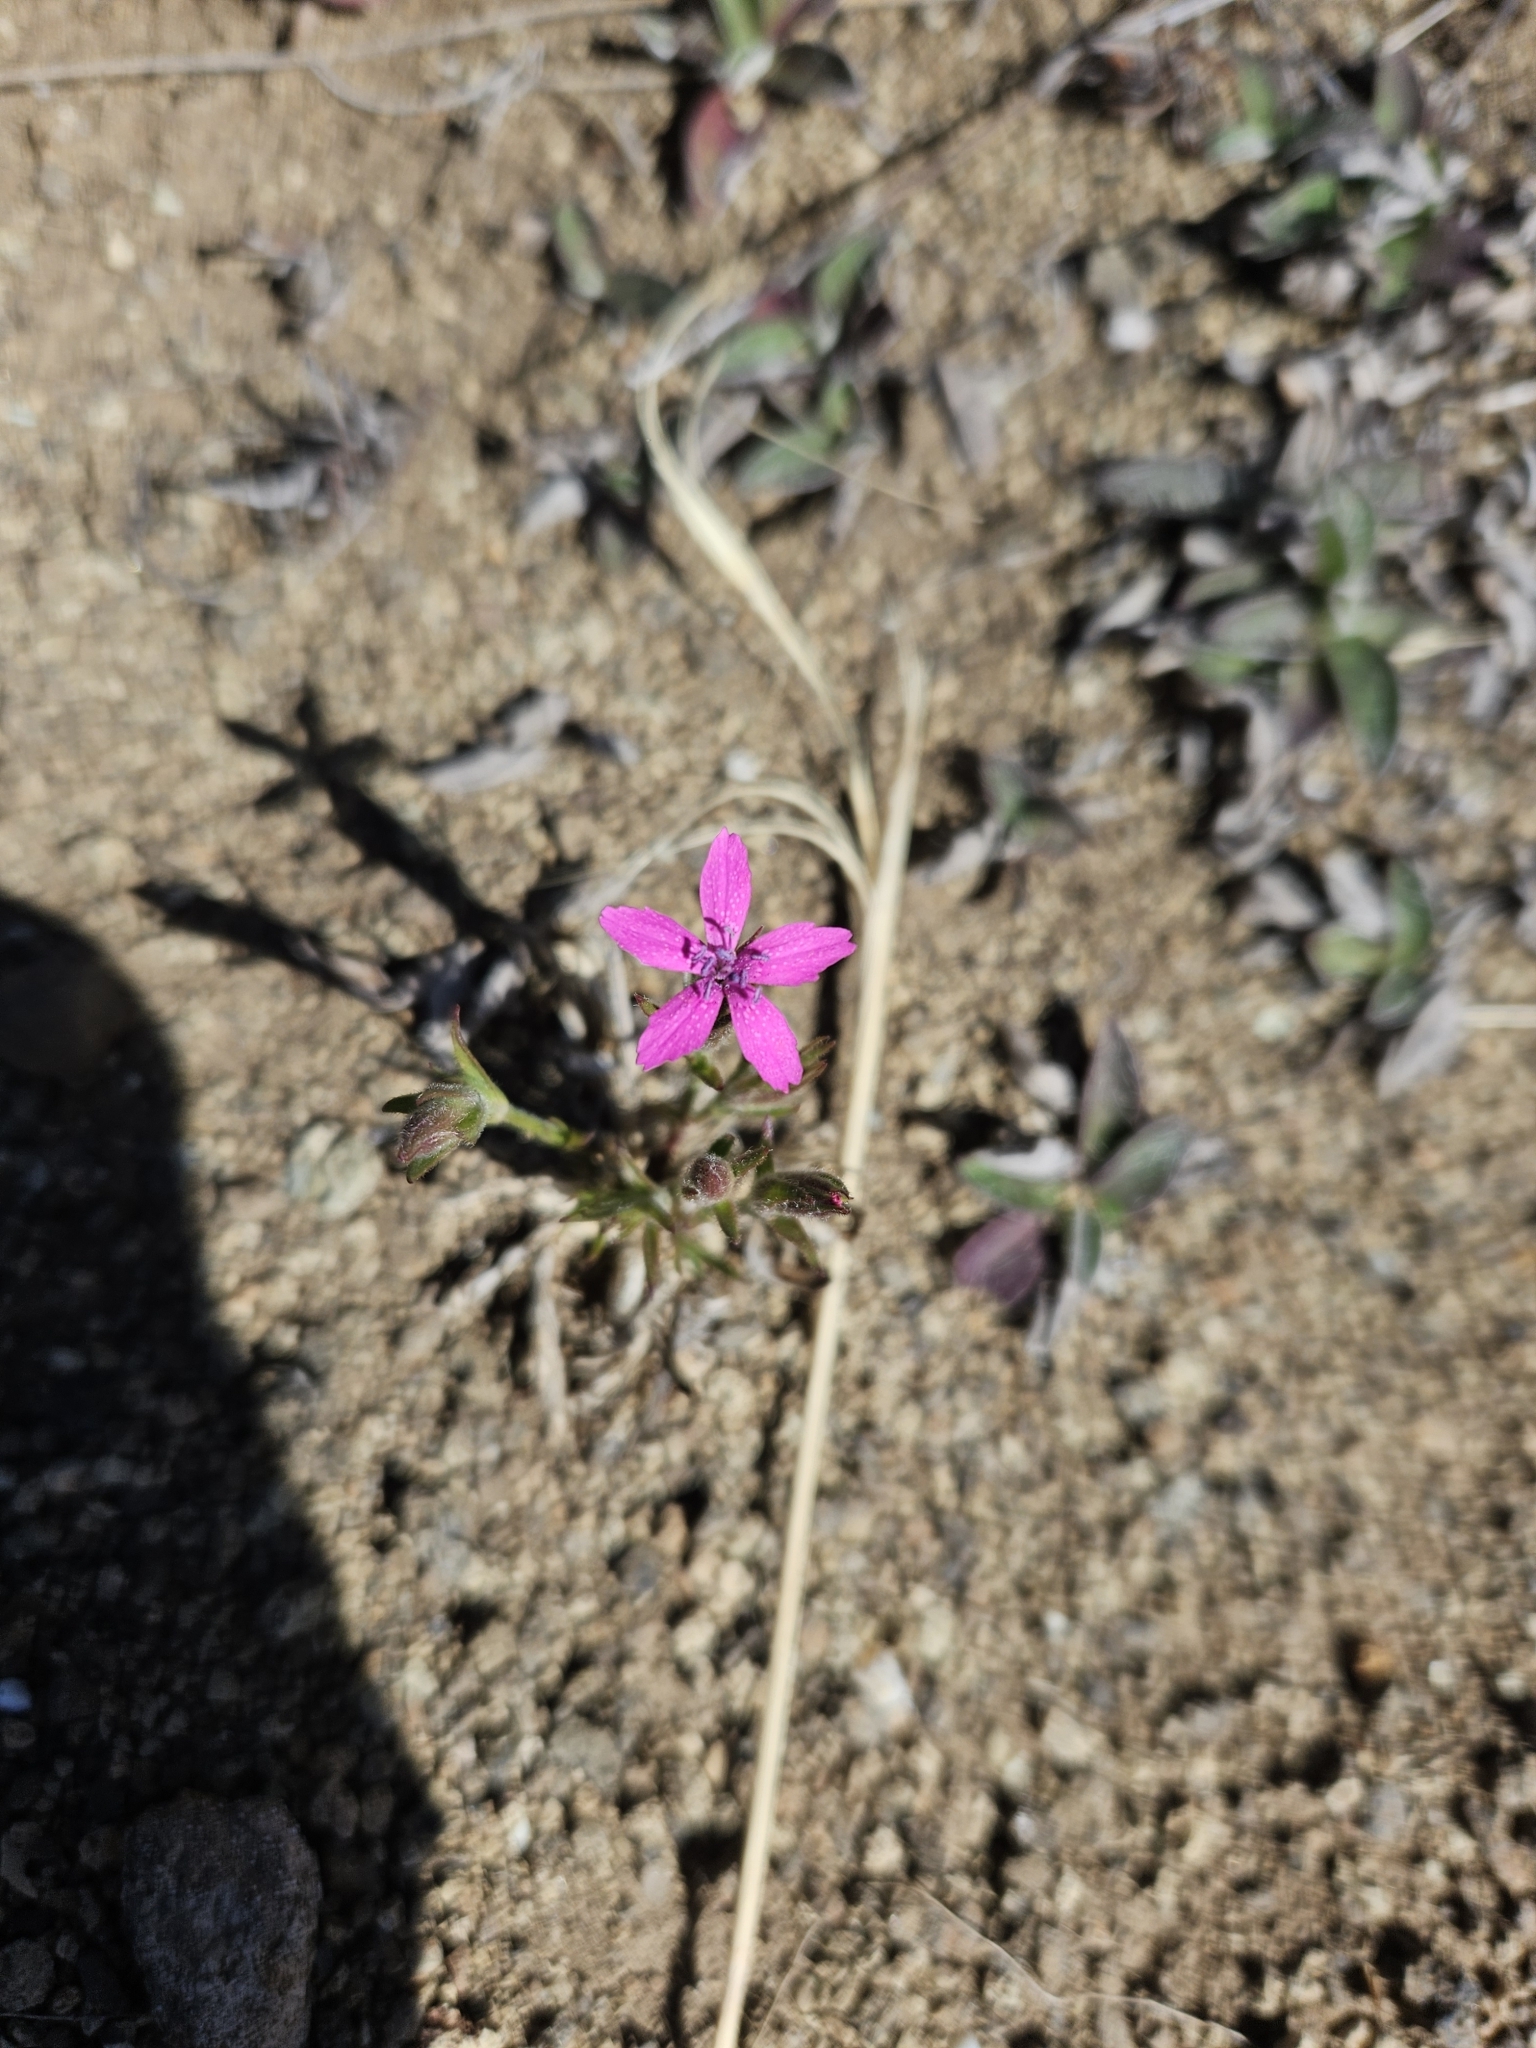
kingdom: Plantae
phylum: Tracheophyta
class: Magnoliopsida
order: Caryophyllales
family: Caryophyllaceae
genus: Dianthus
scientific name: Dianthus armeria
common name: Deptford pink
